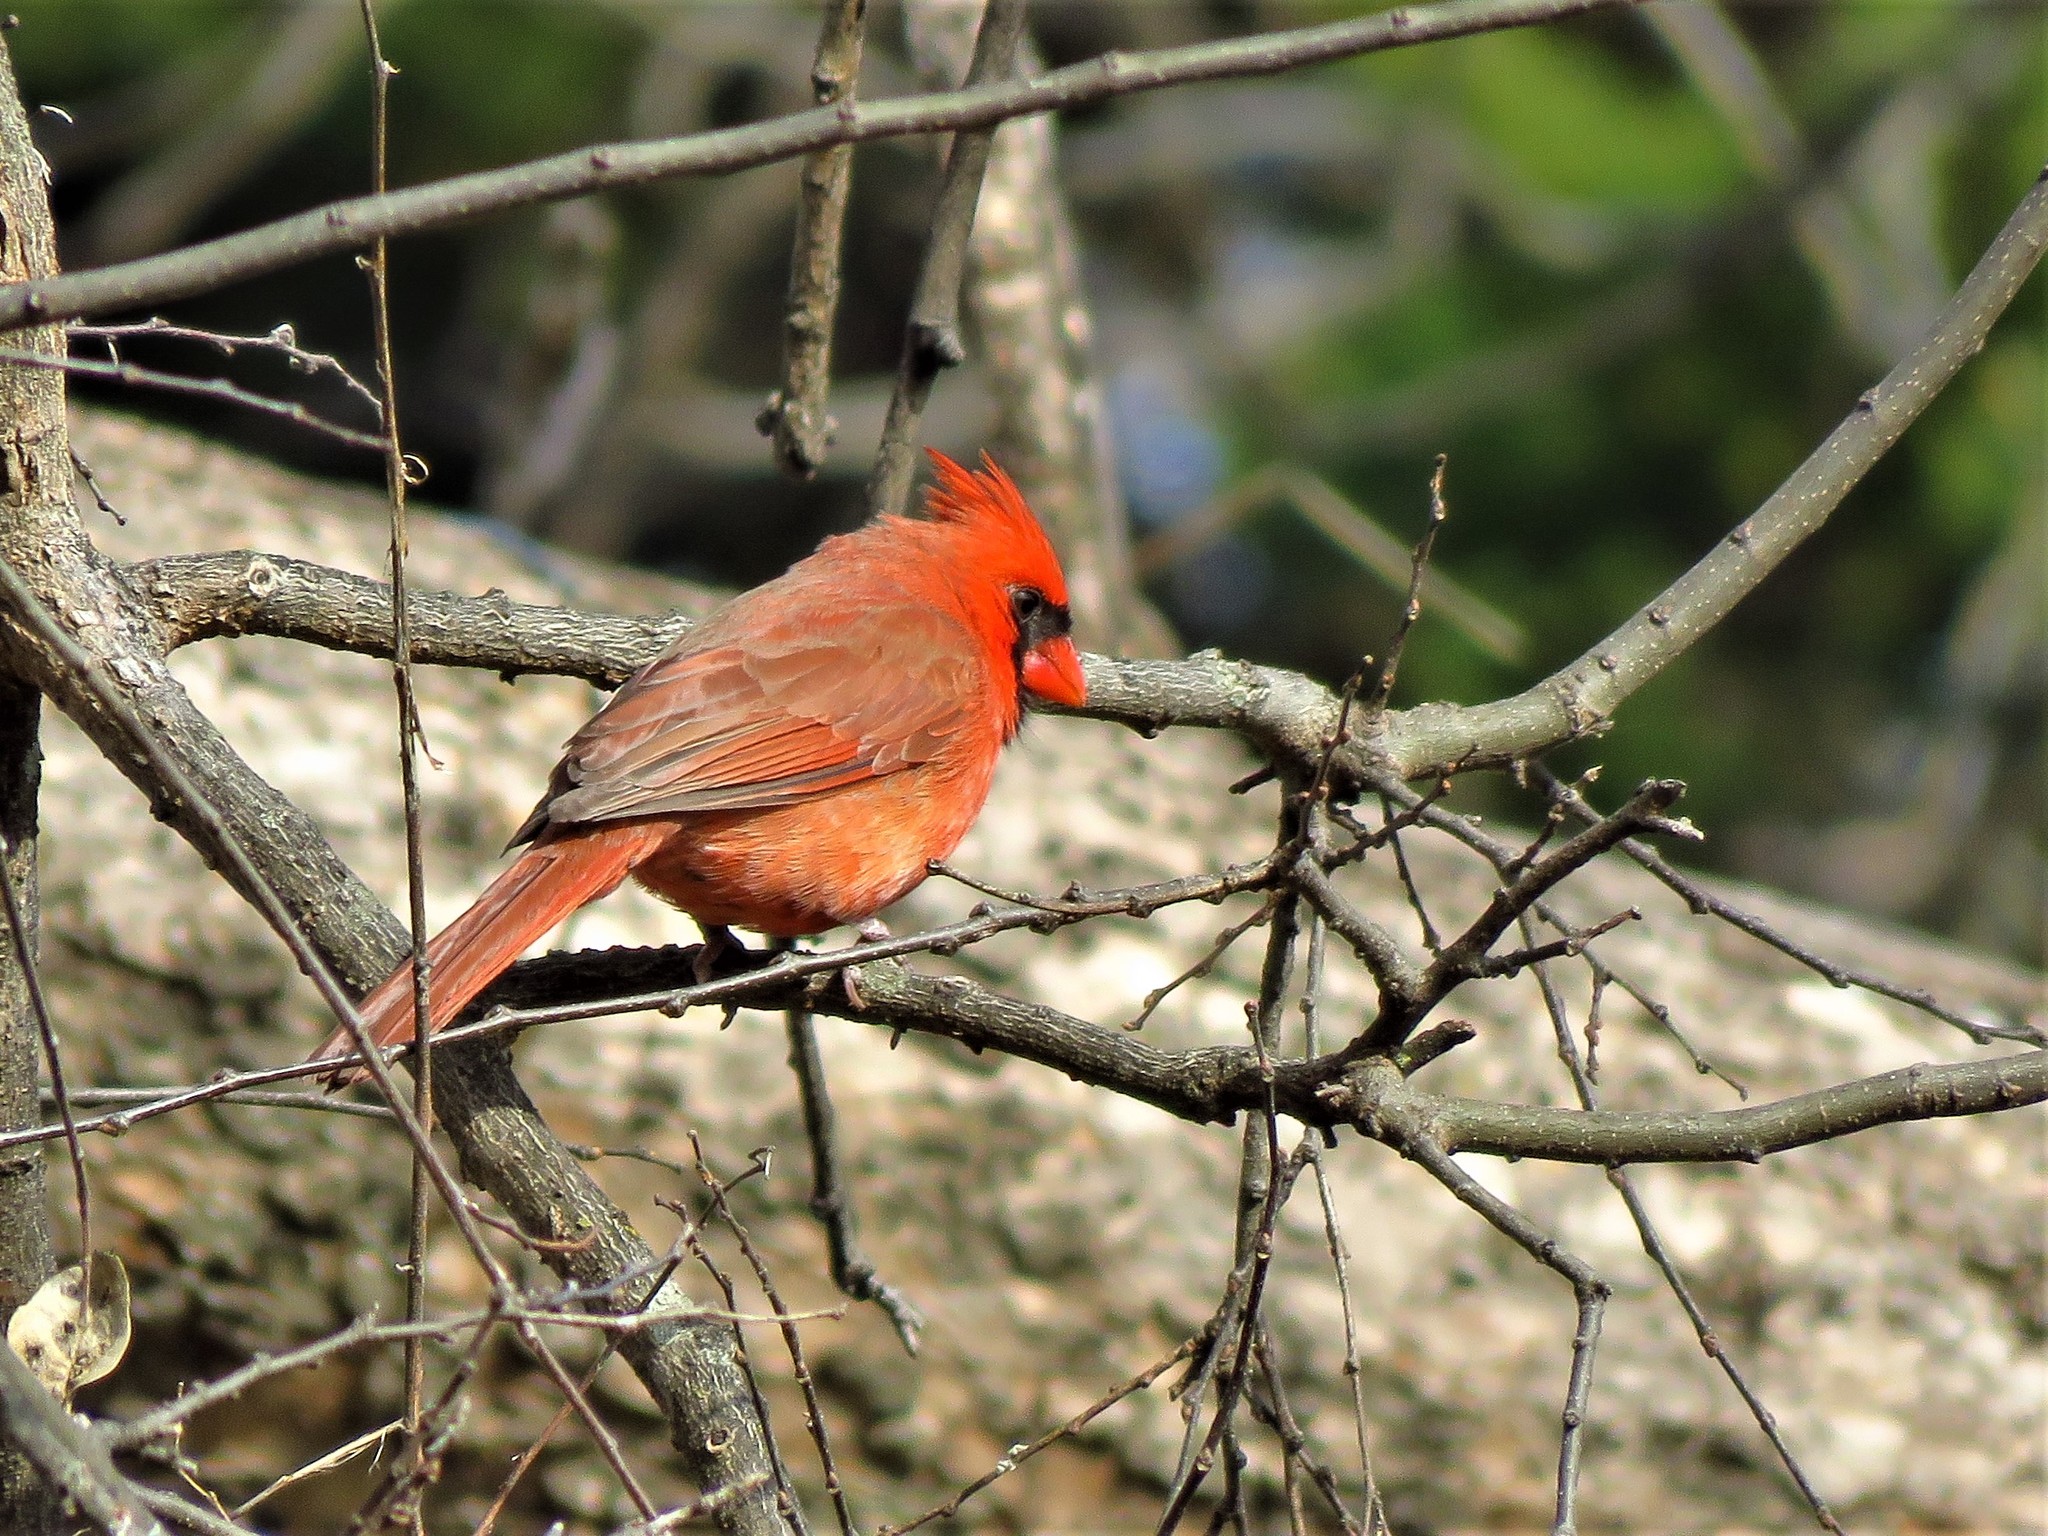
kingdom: Animalia
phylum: Chordata
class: Aves
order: Passeriformes
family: Cardinalidae
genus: Cardinalis
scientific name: Cardinalis cardinalis
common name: Northern cardinal
